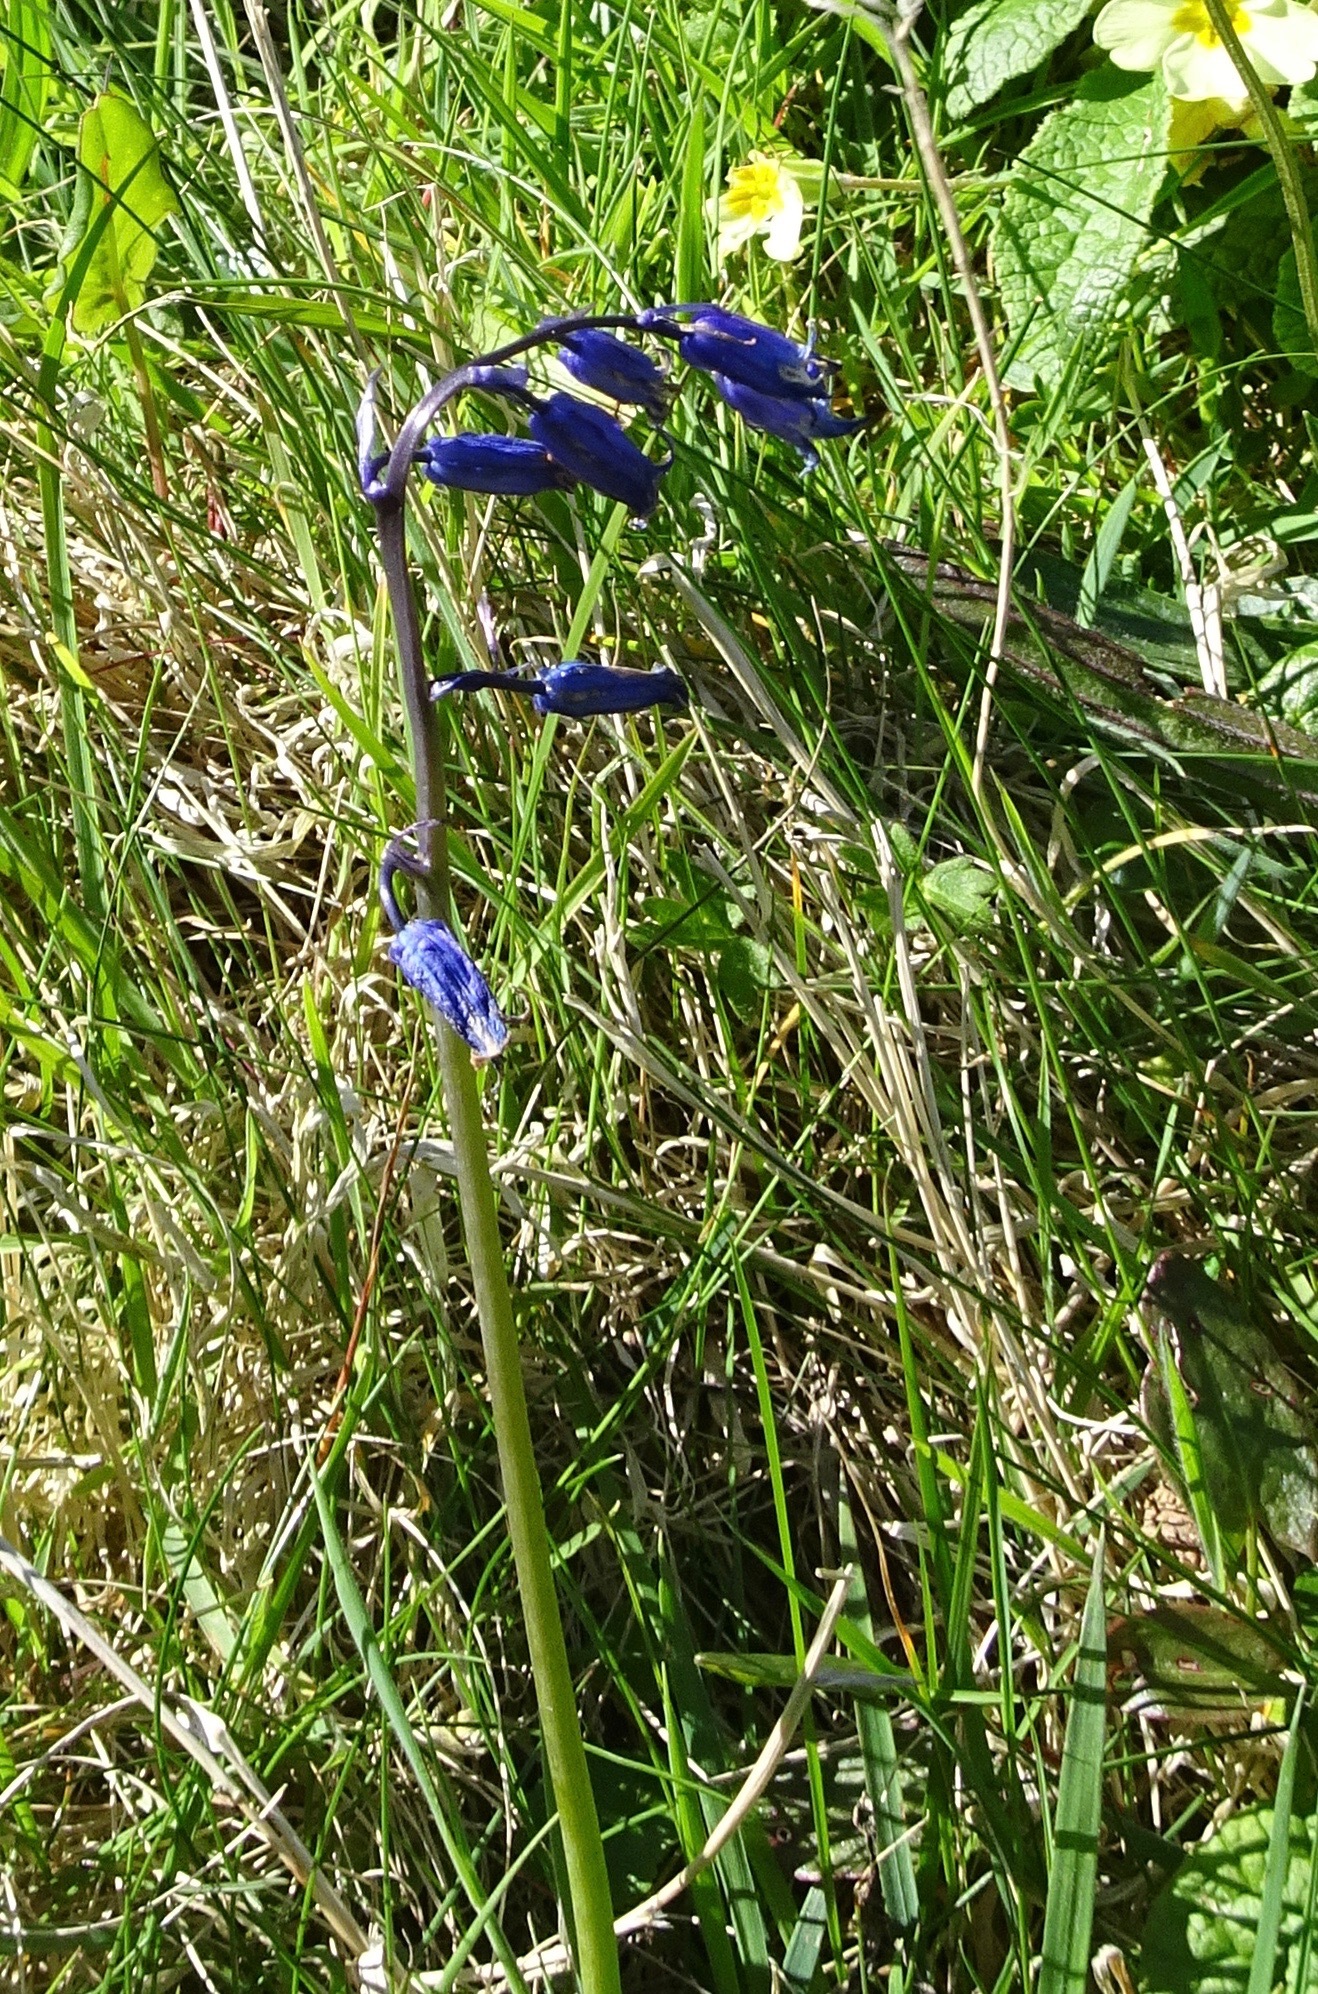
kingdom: Plantae
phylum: Tracheophyta
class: Liliopsida
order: Asparagales
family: Asparagaceae
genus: Hyacinthoides
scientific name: Hyacinthoides non-scripta
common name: Bluebell
